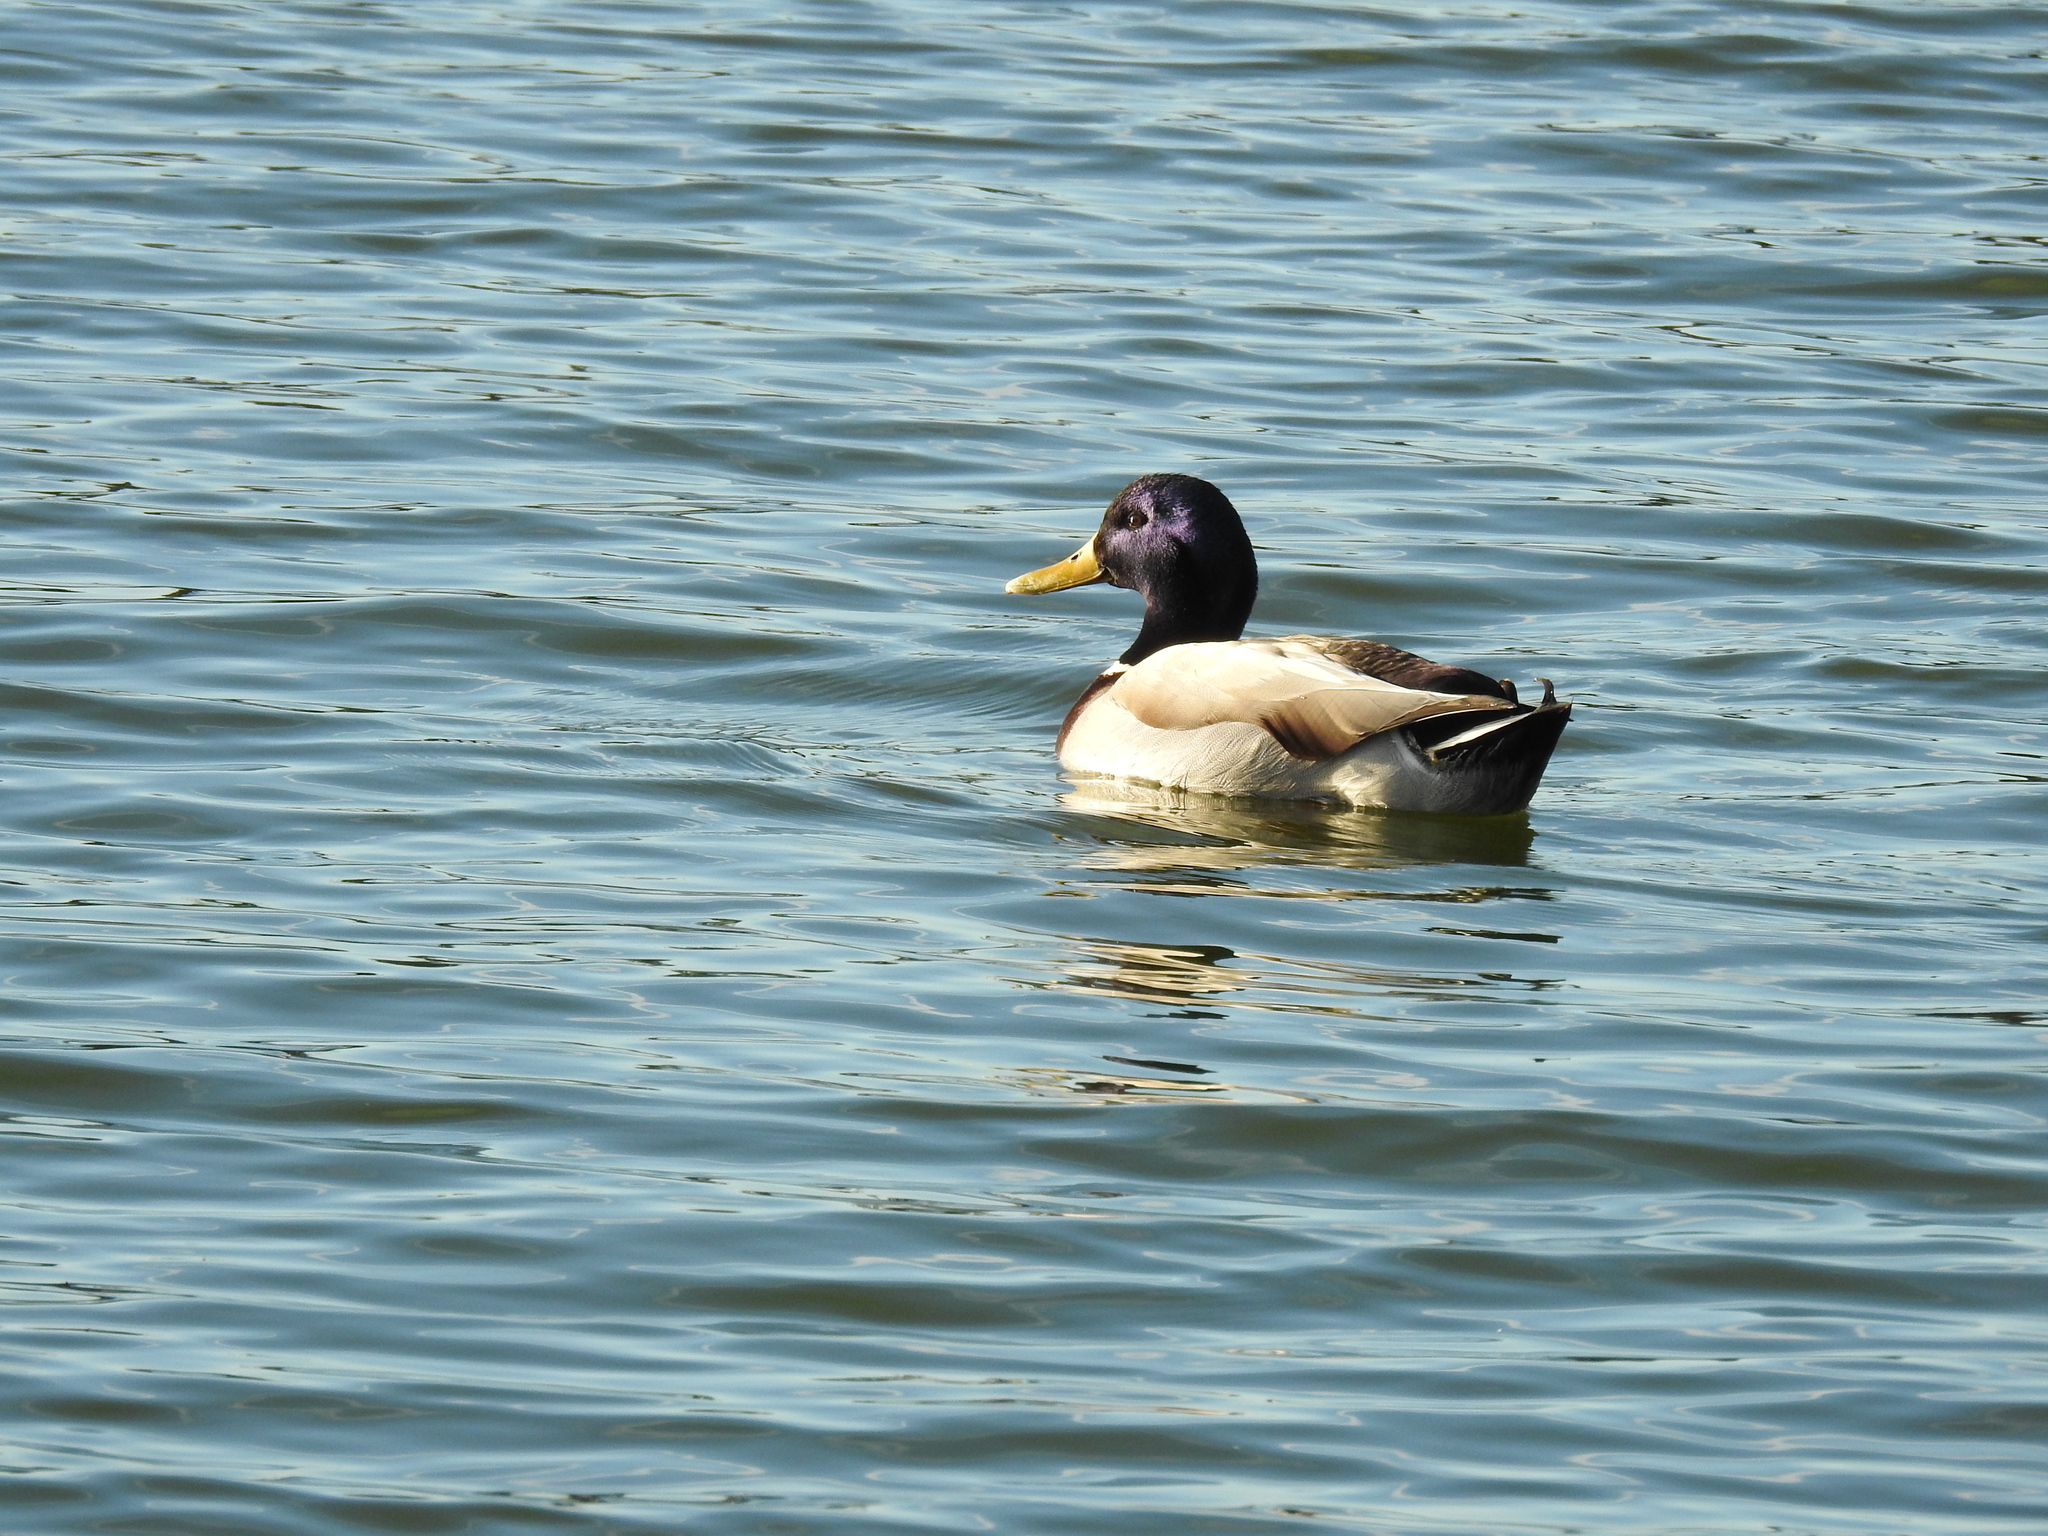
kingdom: Animalia
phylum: Chordata
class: Aves
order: Anseriformes
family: Anatidae
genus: Anas
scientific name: Anas platyrhynchos
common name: Mallard
